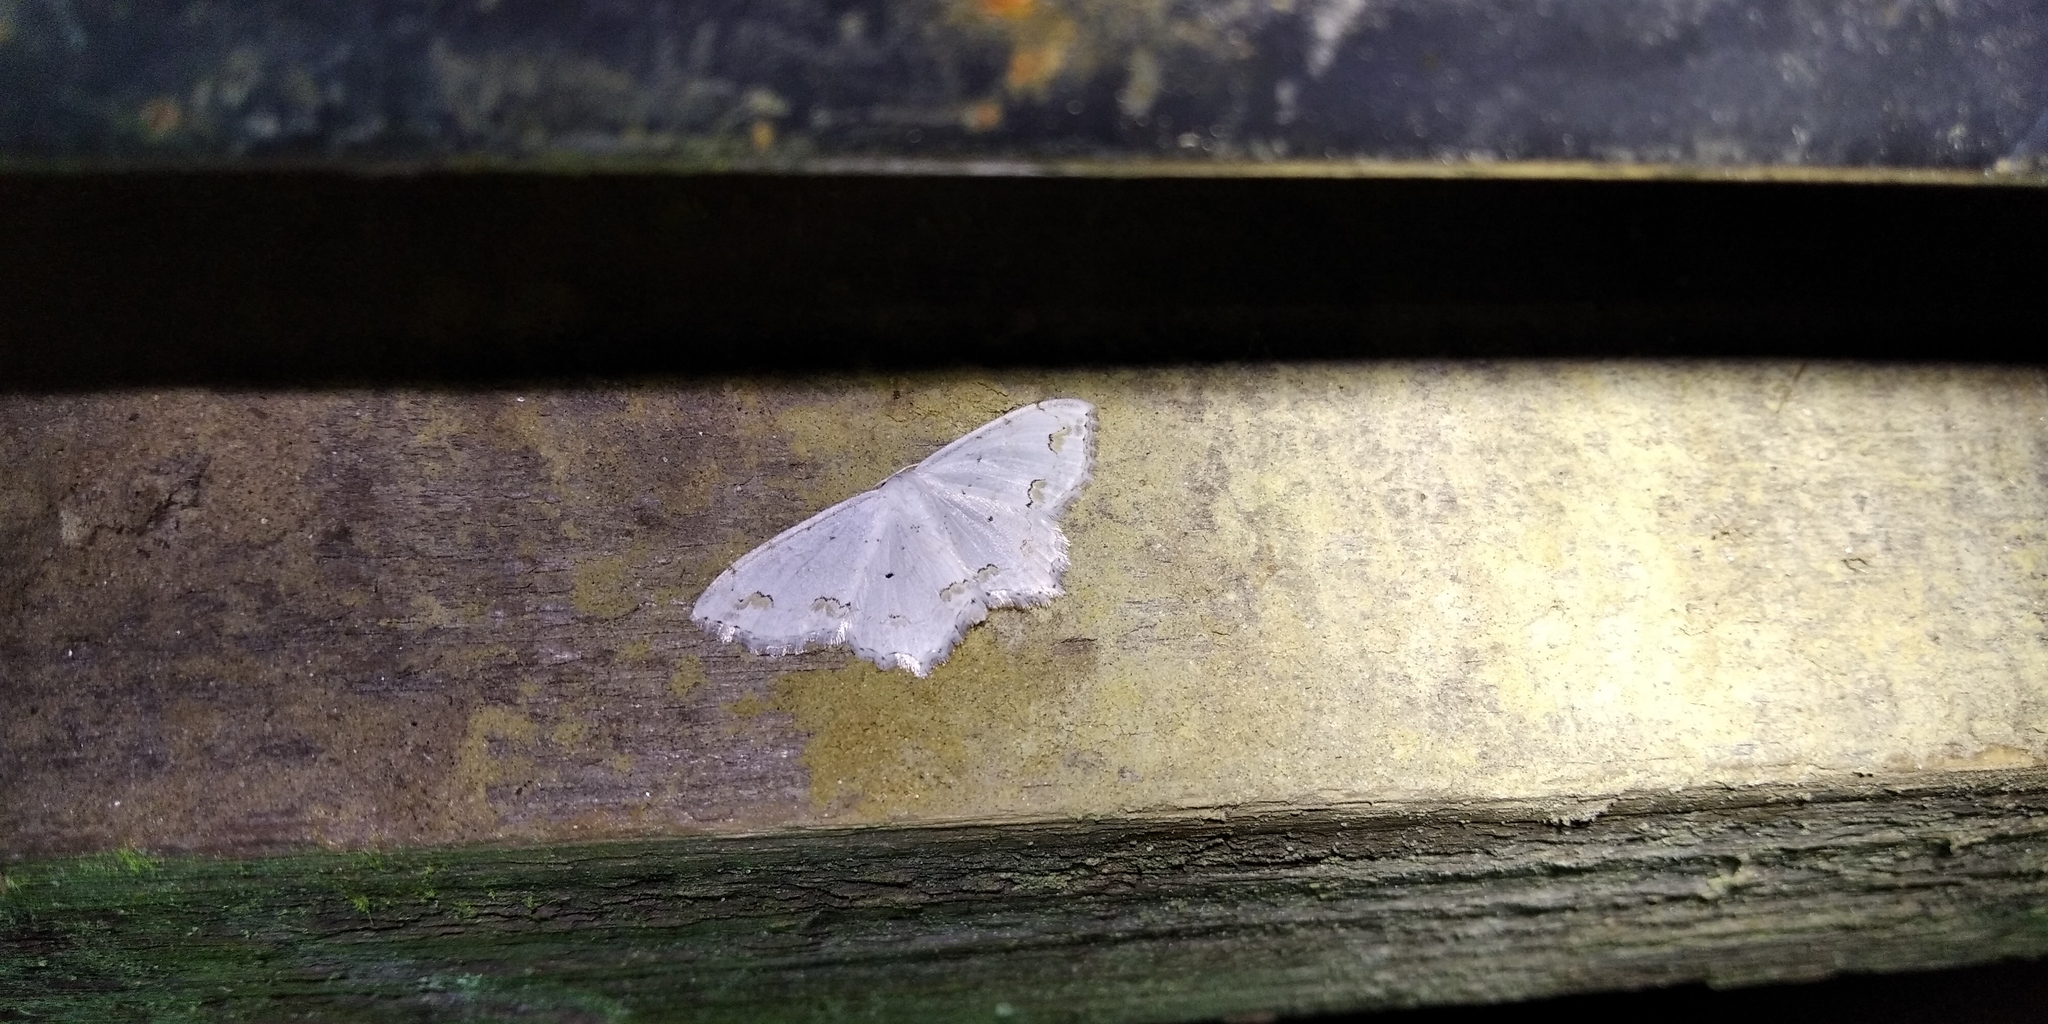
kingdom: Animalia
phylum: Arthropoda
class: Insecta
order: Lepidoptera
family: Geometridae
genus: Scopula
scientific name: Scopula ornata
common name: Lace border
